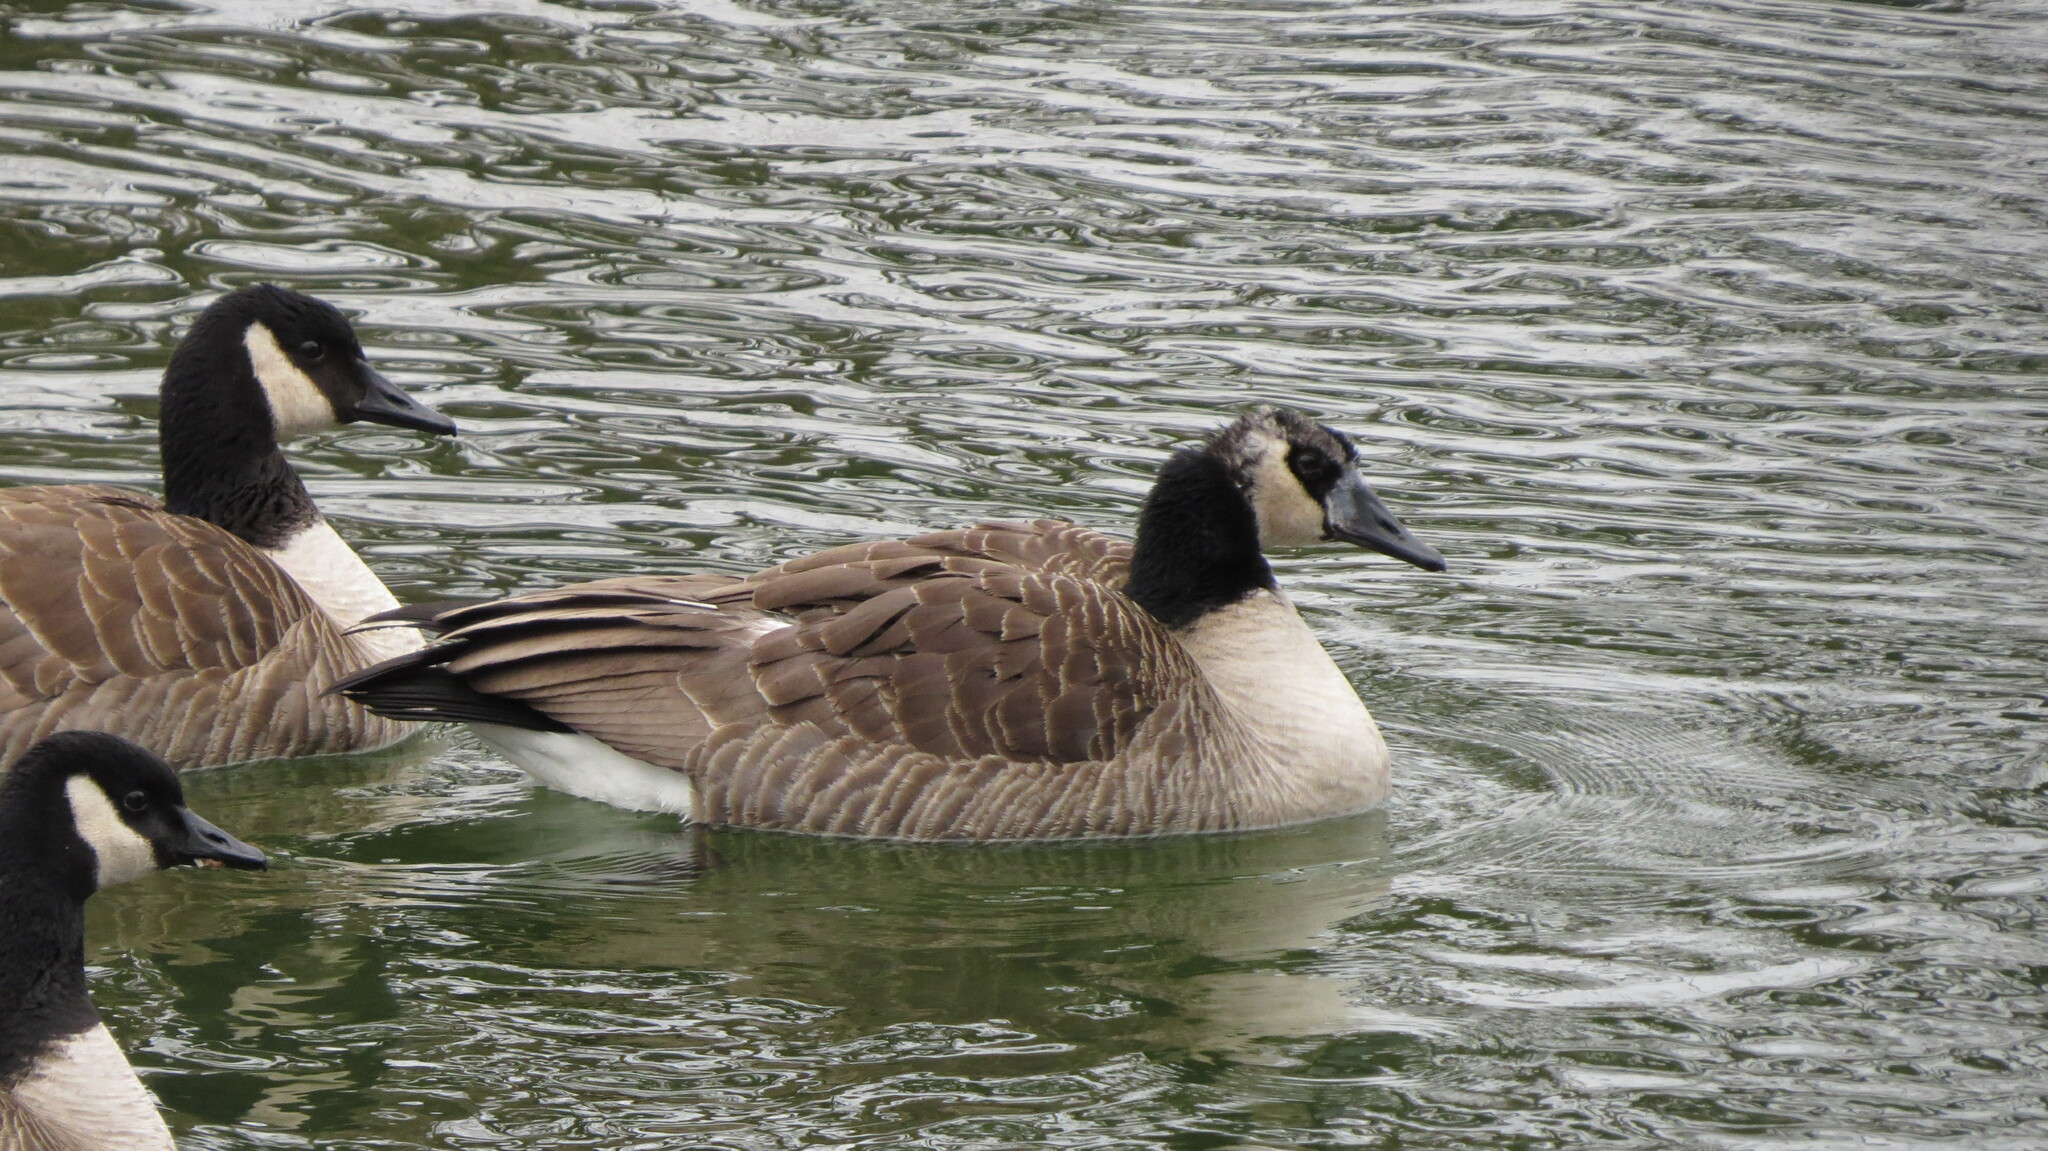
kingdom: Animalia
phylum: Chordata
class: Aves
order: Anseriformes
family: Anatidae
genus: Branta
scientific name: Branta canadensis
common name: Canada goose
